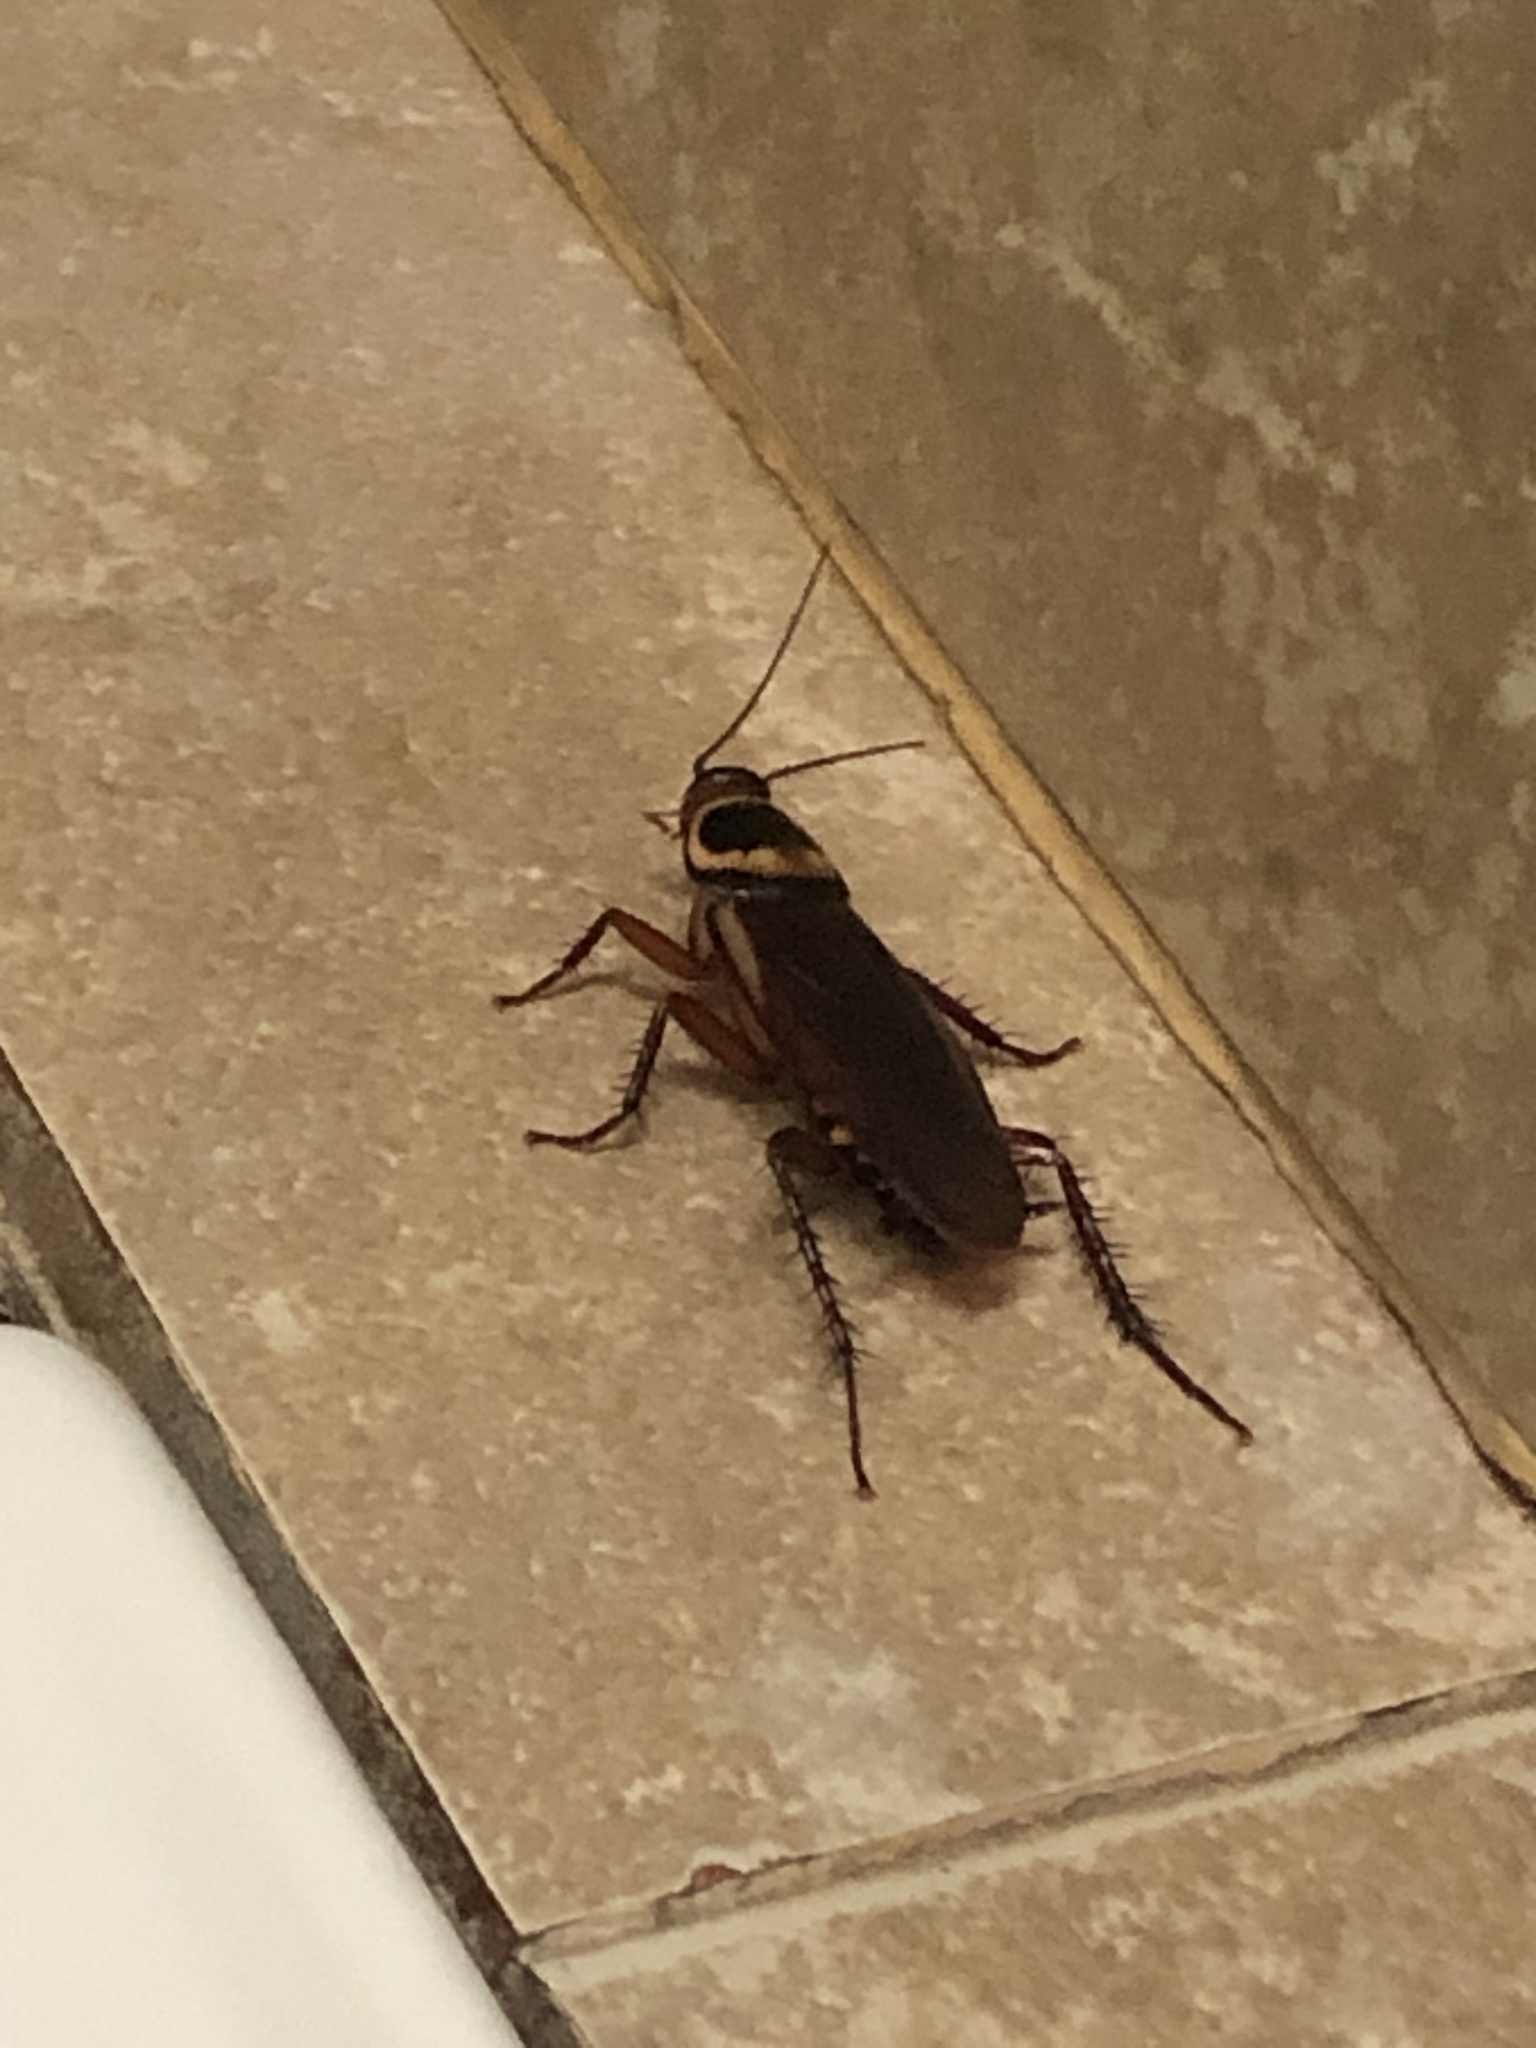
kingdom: Animalia
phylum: Arthropoda
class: Insecta
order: Blattodea
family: Blattidae
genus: Periplaneta
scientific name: Periplaneta australasiae
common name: Australian cockroach
